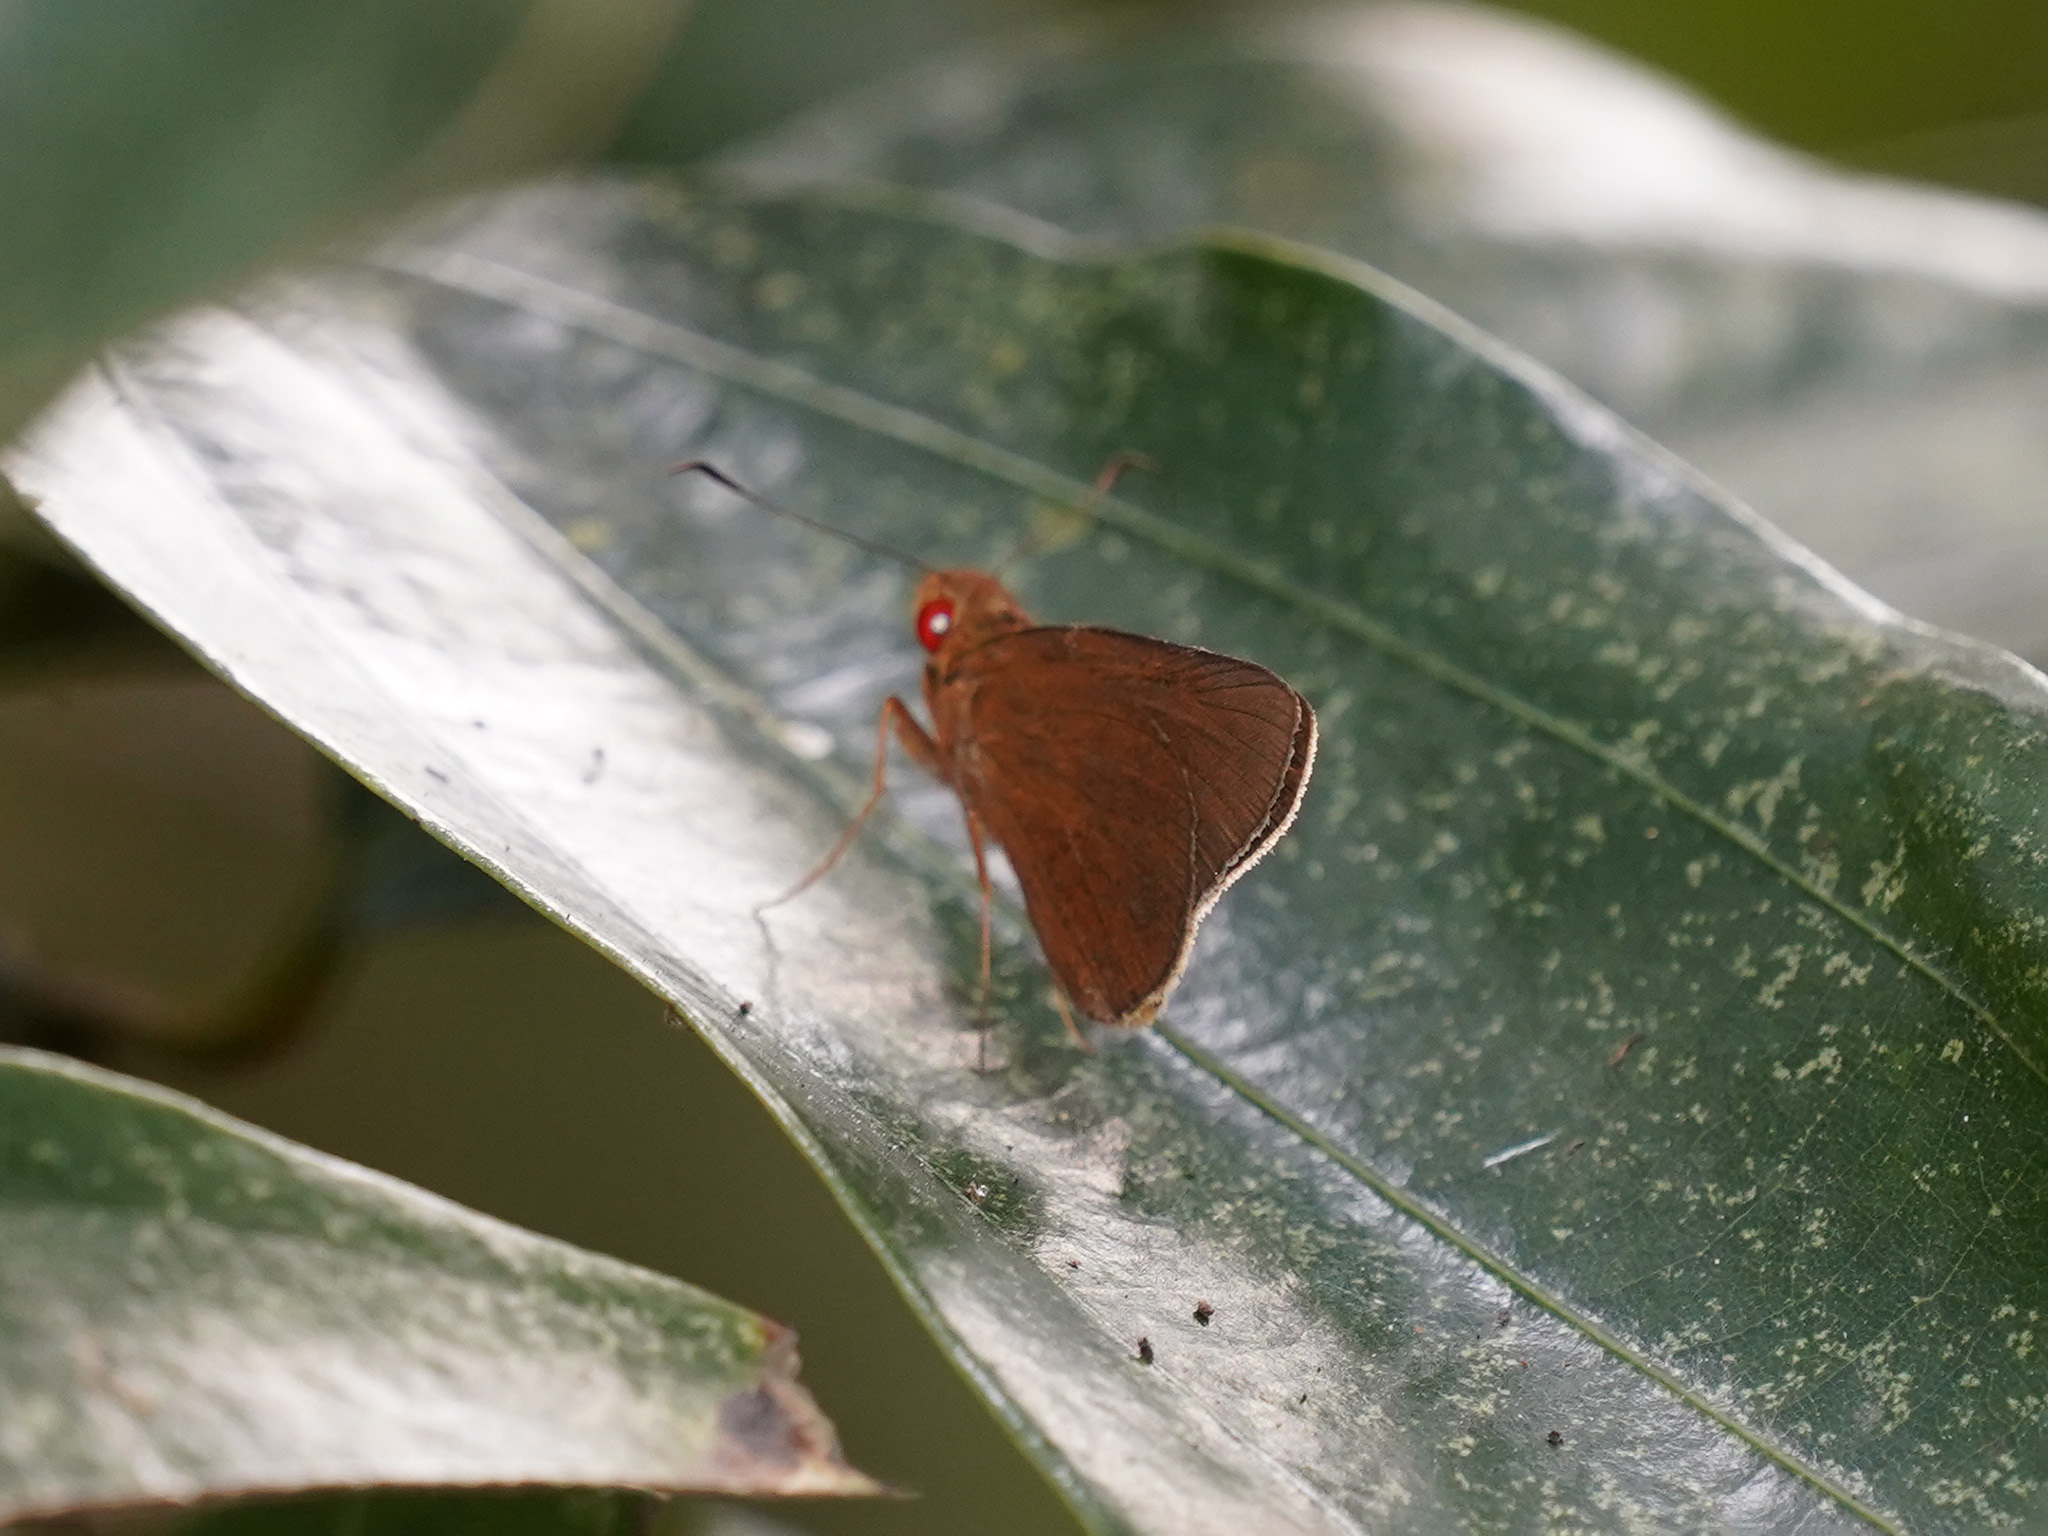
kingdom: Animalia
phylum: Arthropoda
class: Insecta
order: Lepidoptera
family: Hesperiidae
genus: Matapa
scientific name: Matapa aria
